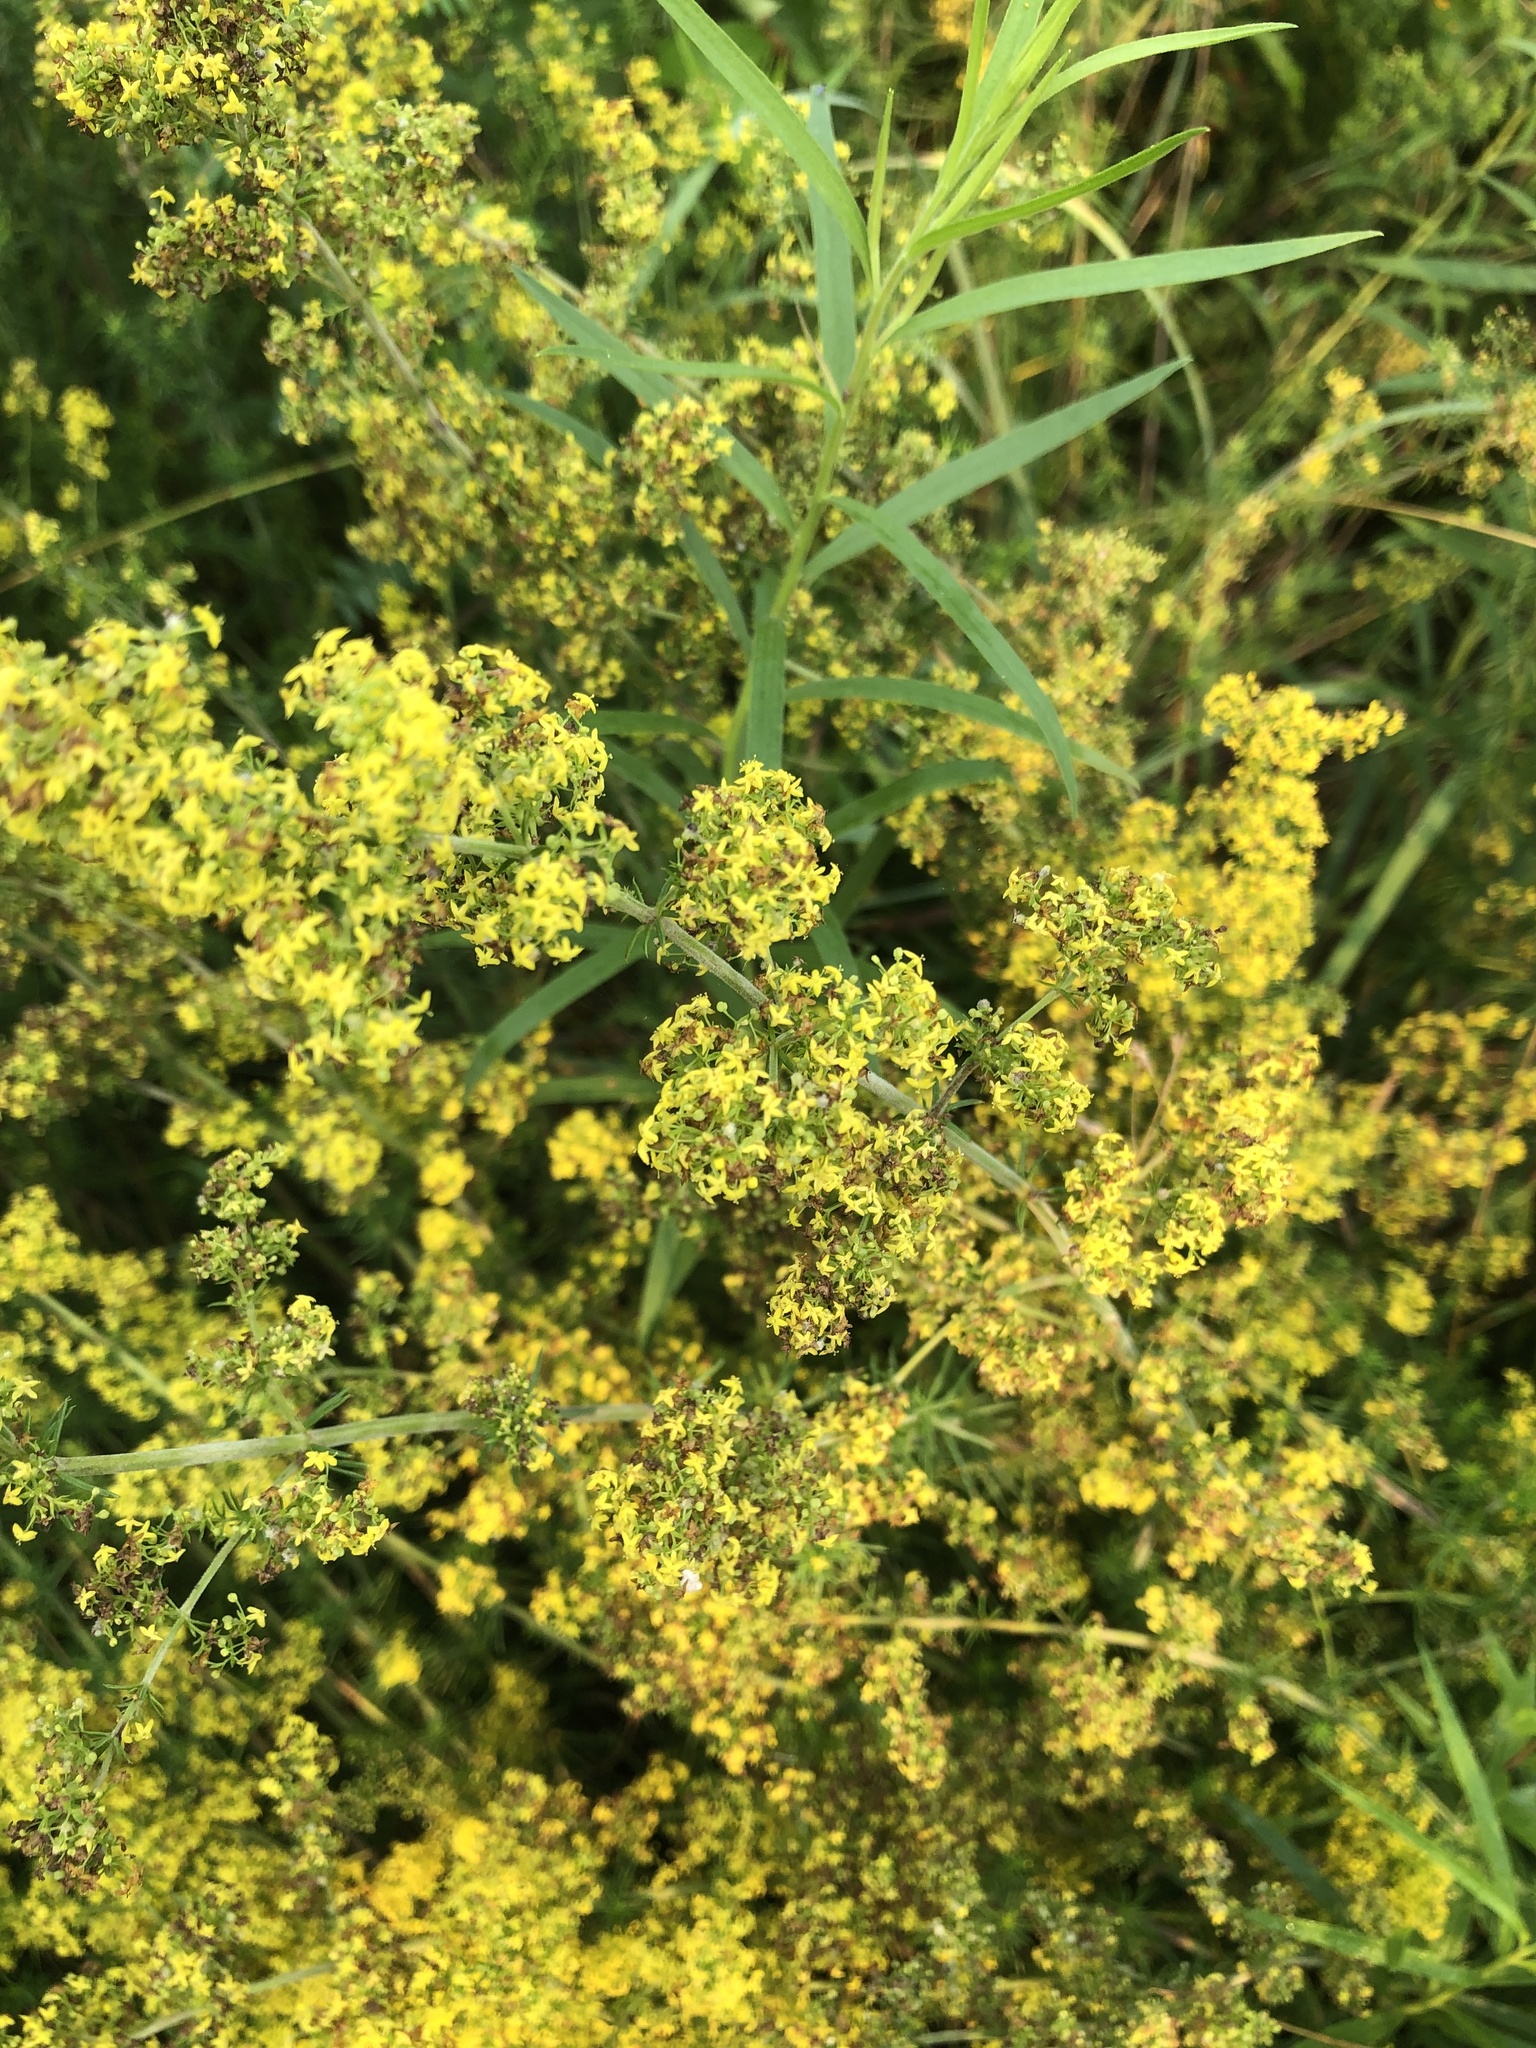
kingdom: Plantae
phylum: Tracheophyta
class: Magnoliopsida
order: Gentianales
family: Rubiaceae
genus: Galium
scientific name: Galium verum
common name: Lady's bedstraw
